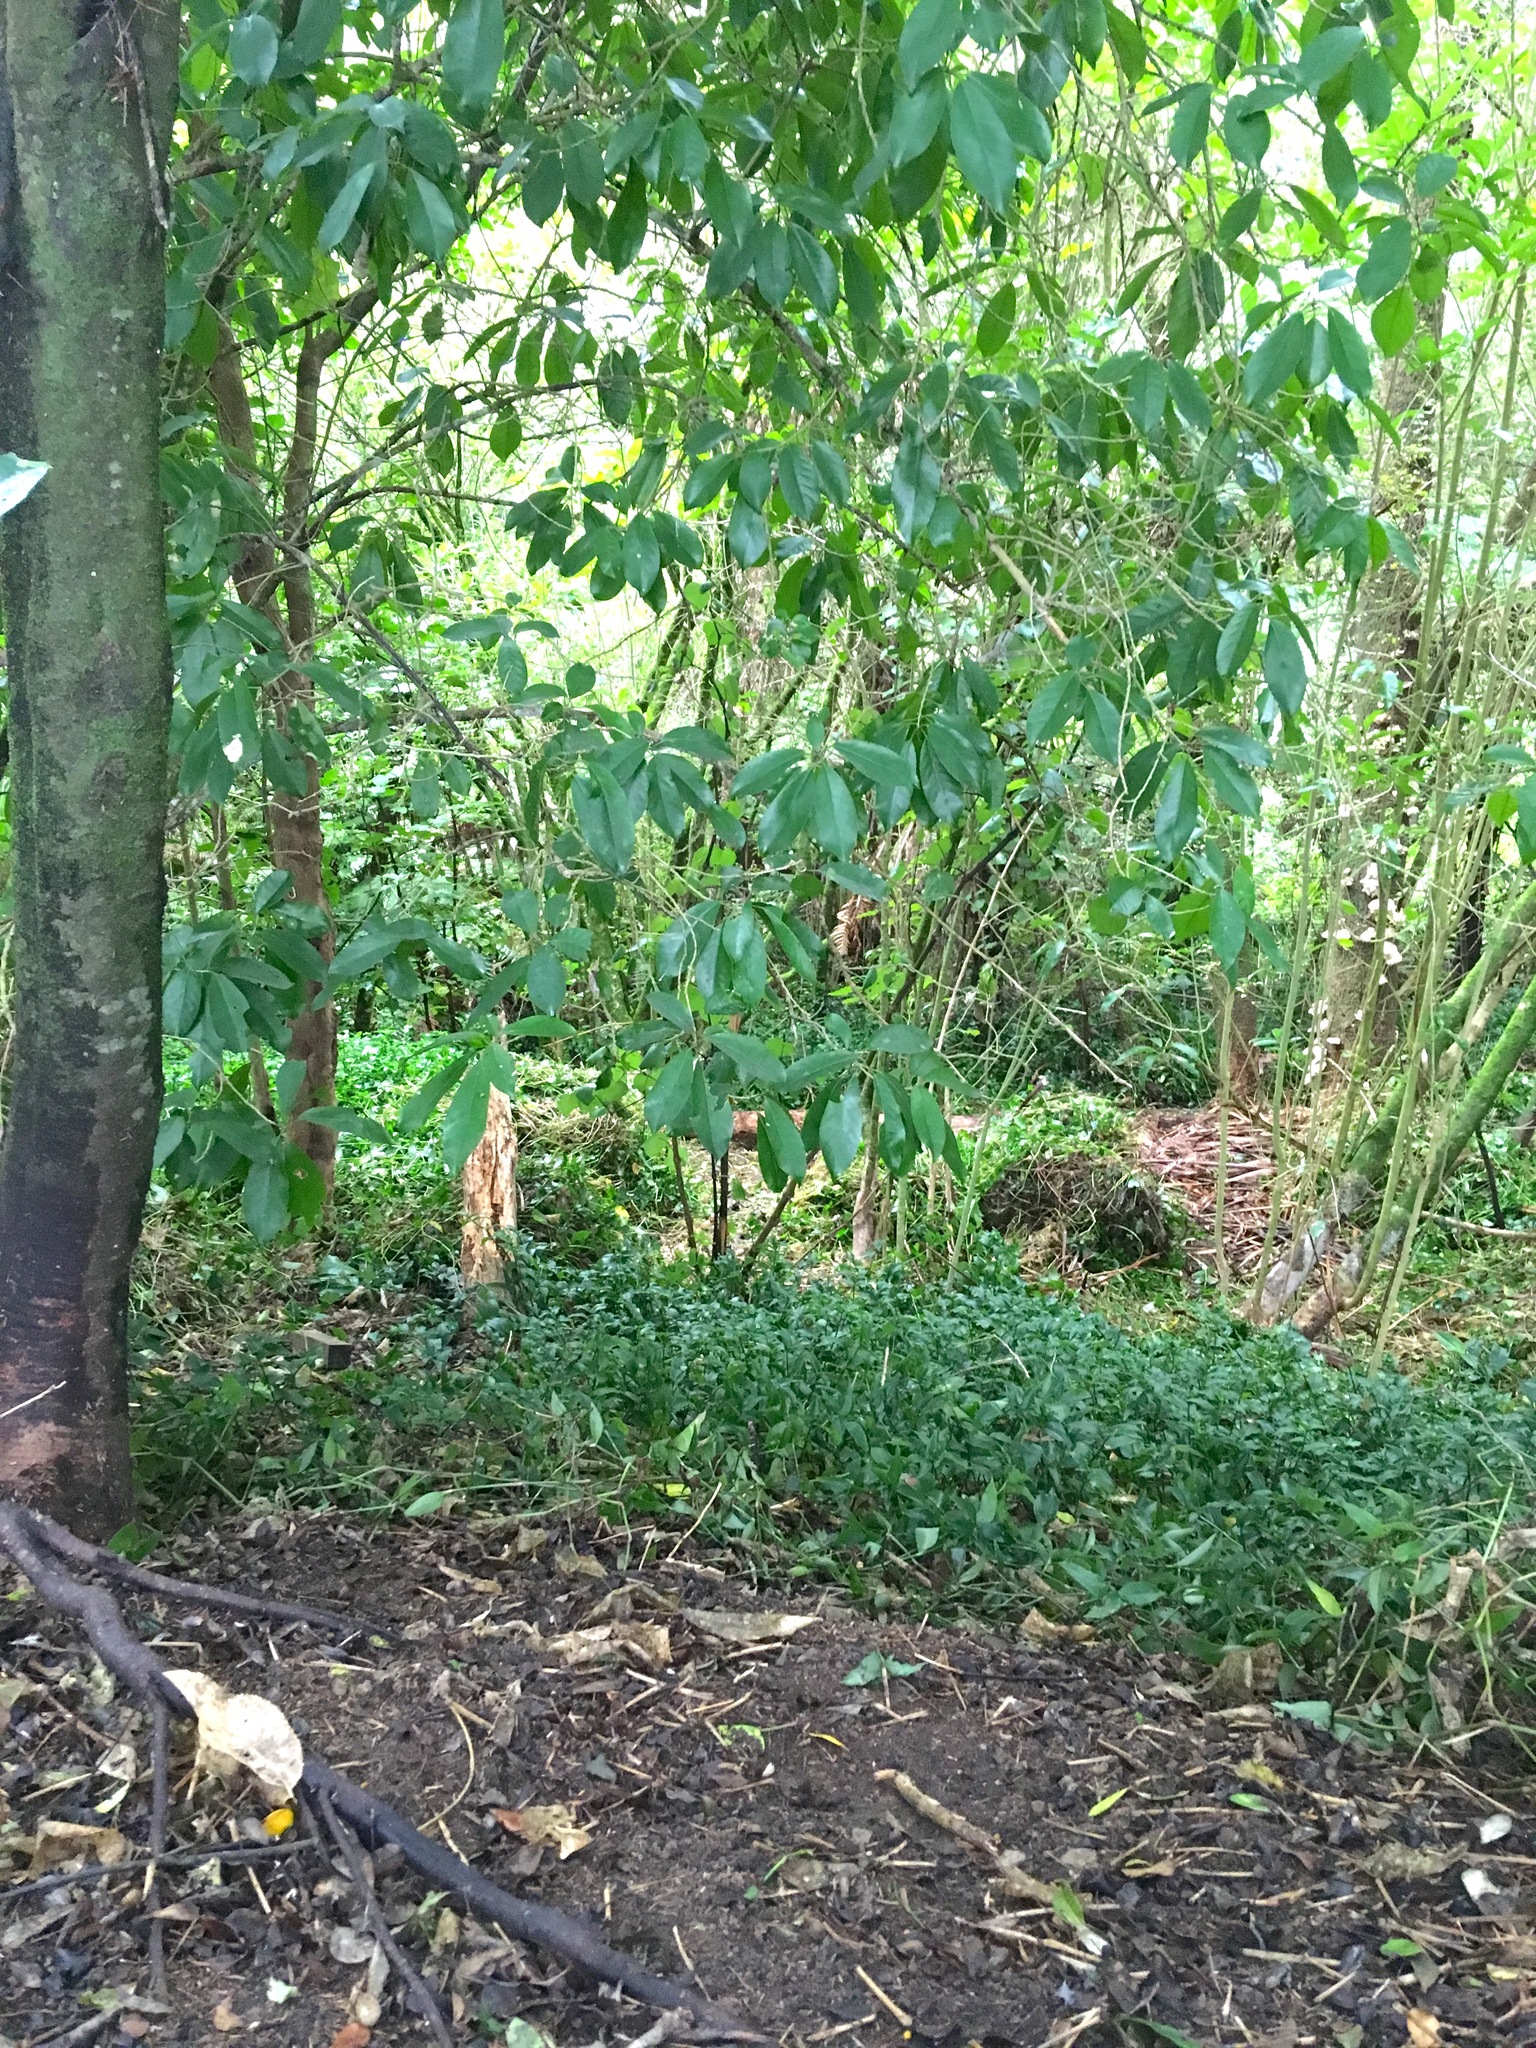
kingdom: Plantae
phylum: Tracheophyta
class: Liliopsida
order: Commelinales
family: Commelinaceae
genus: Tradescantia
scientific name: Tradescantia fluminensis
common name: Wandering-jew
